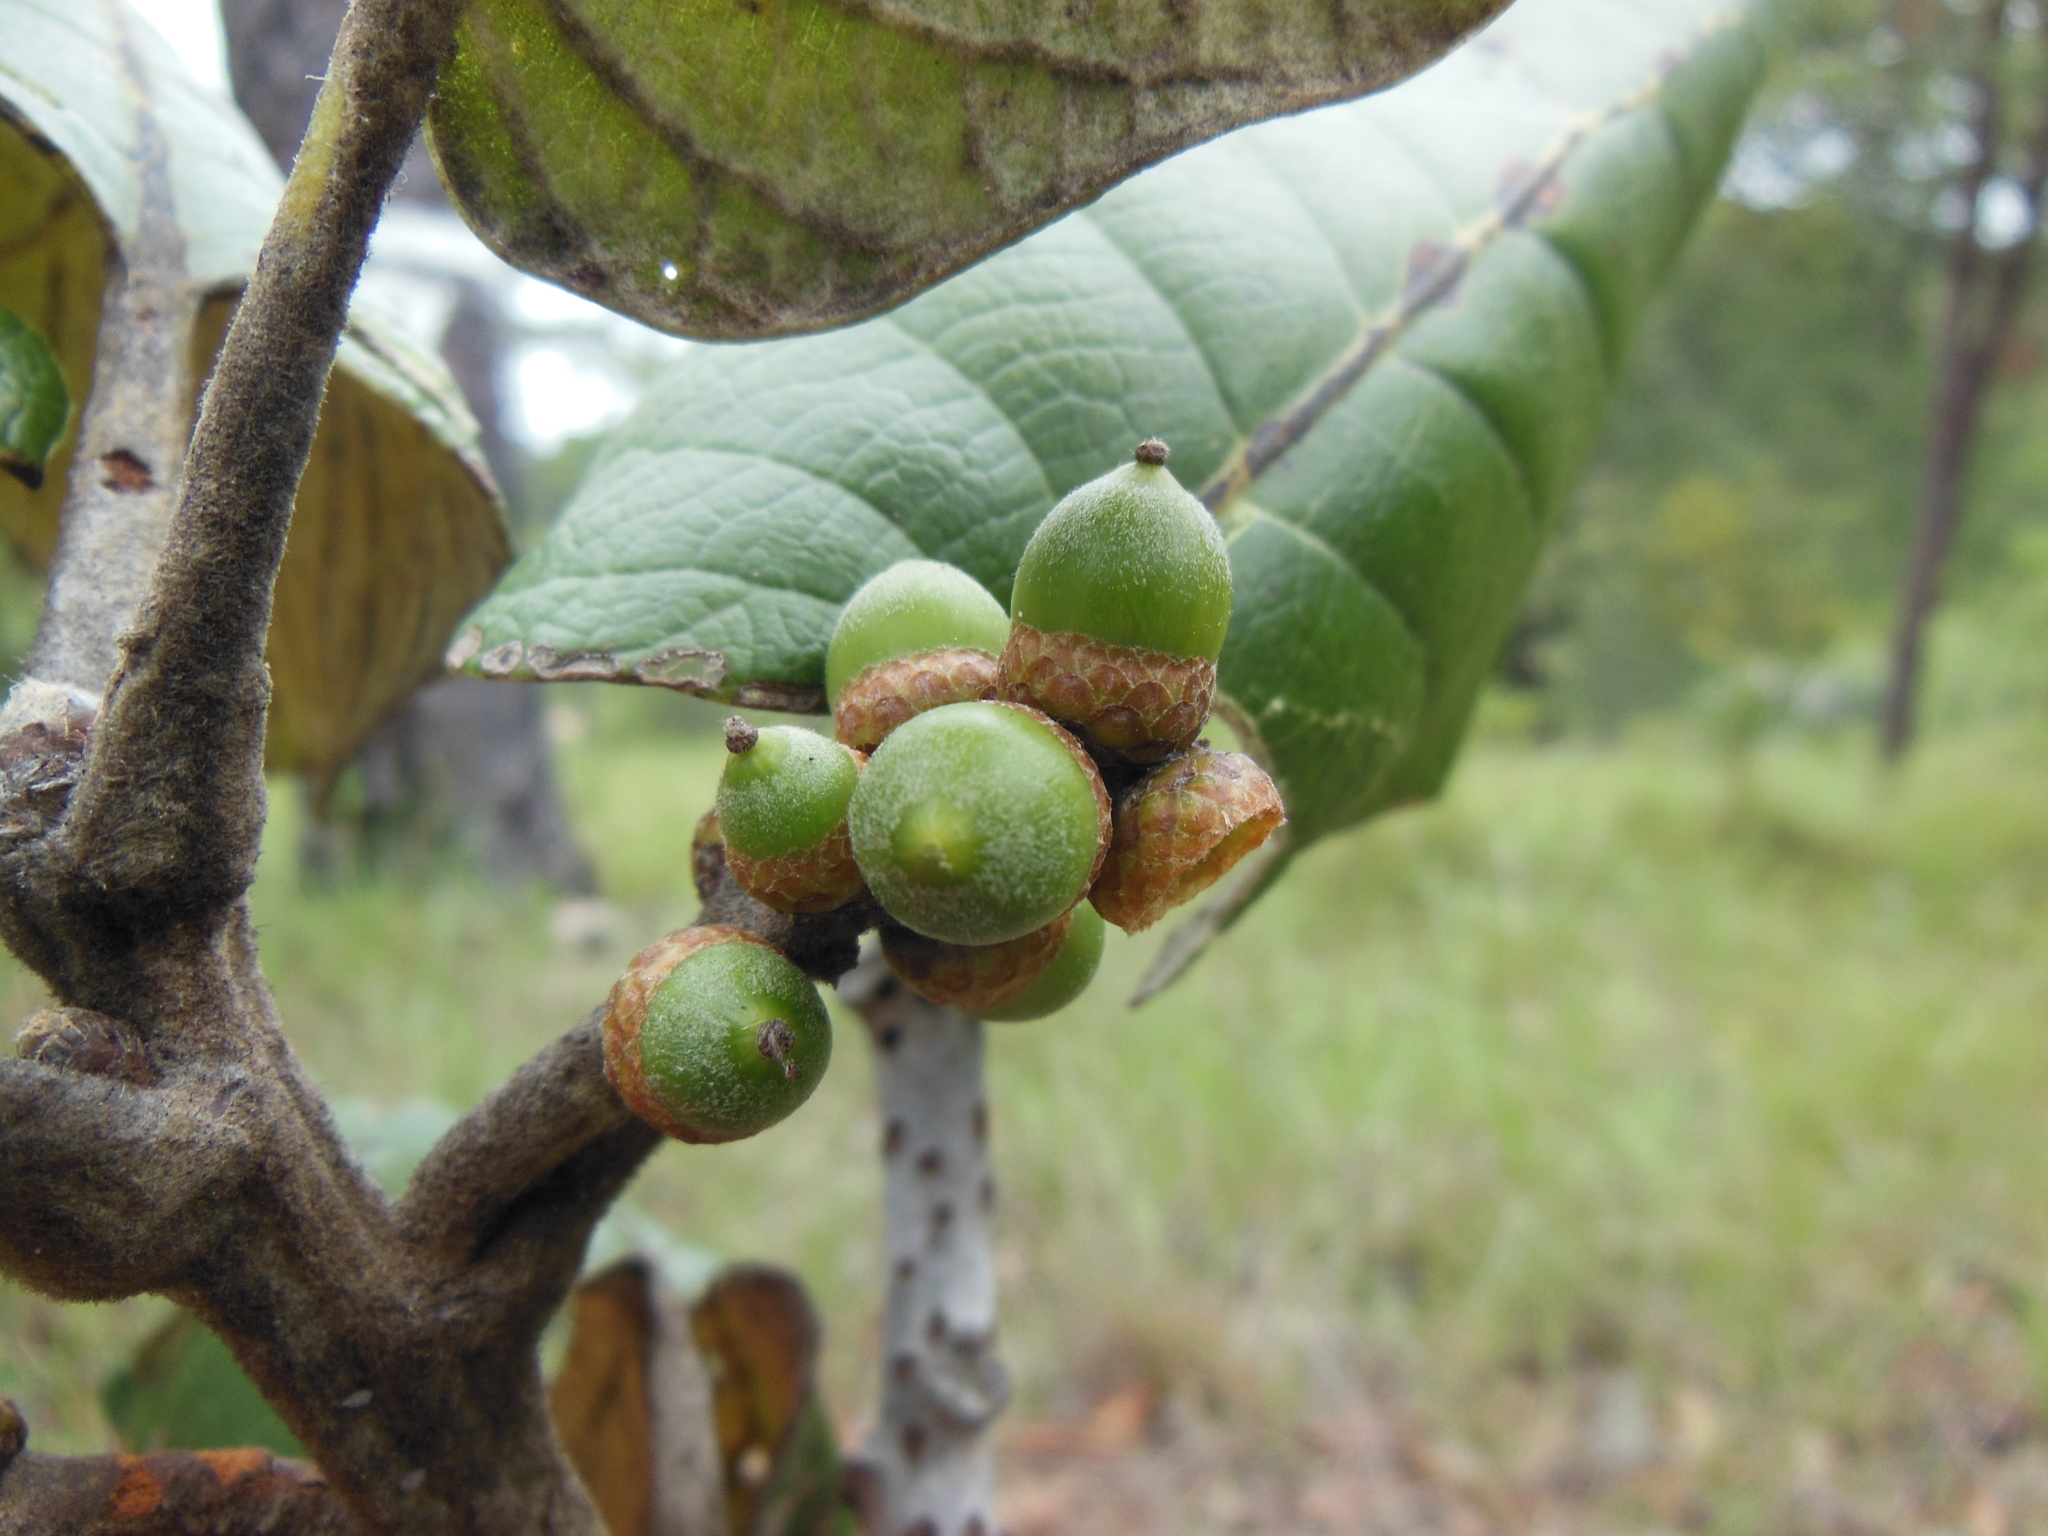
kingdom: Plantae
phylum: Tracheophyta
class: Magnoliopsida
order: Fagales
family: Fagaceae
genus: Quercus
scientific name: Quercus urbani
